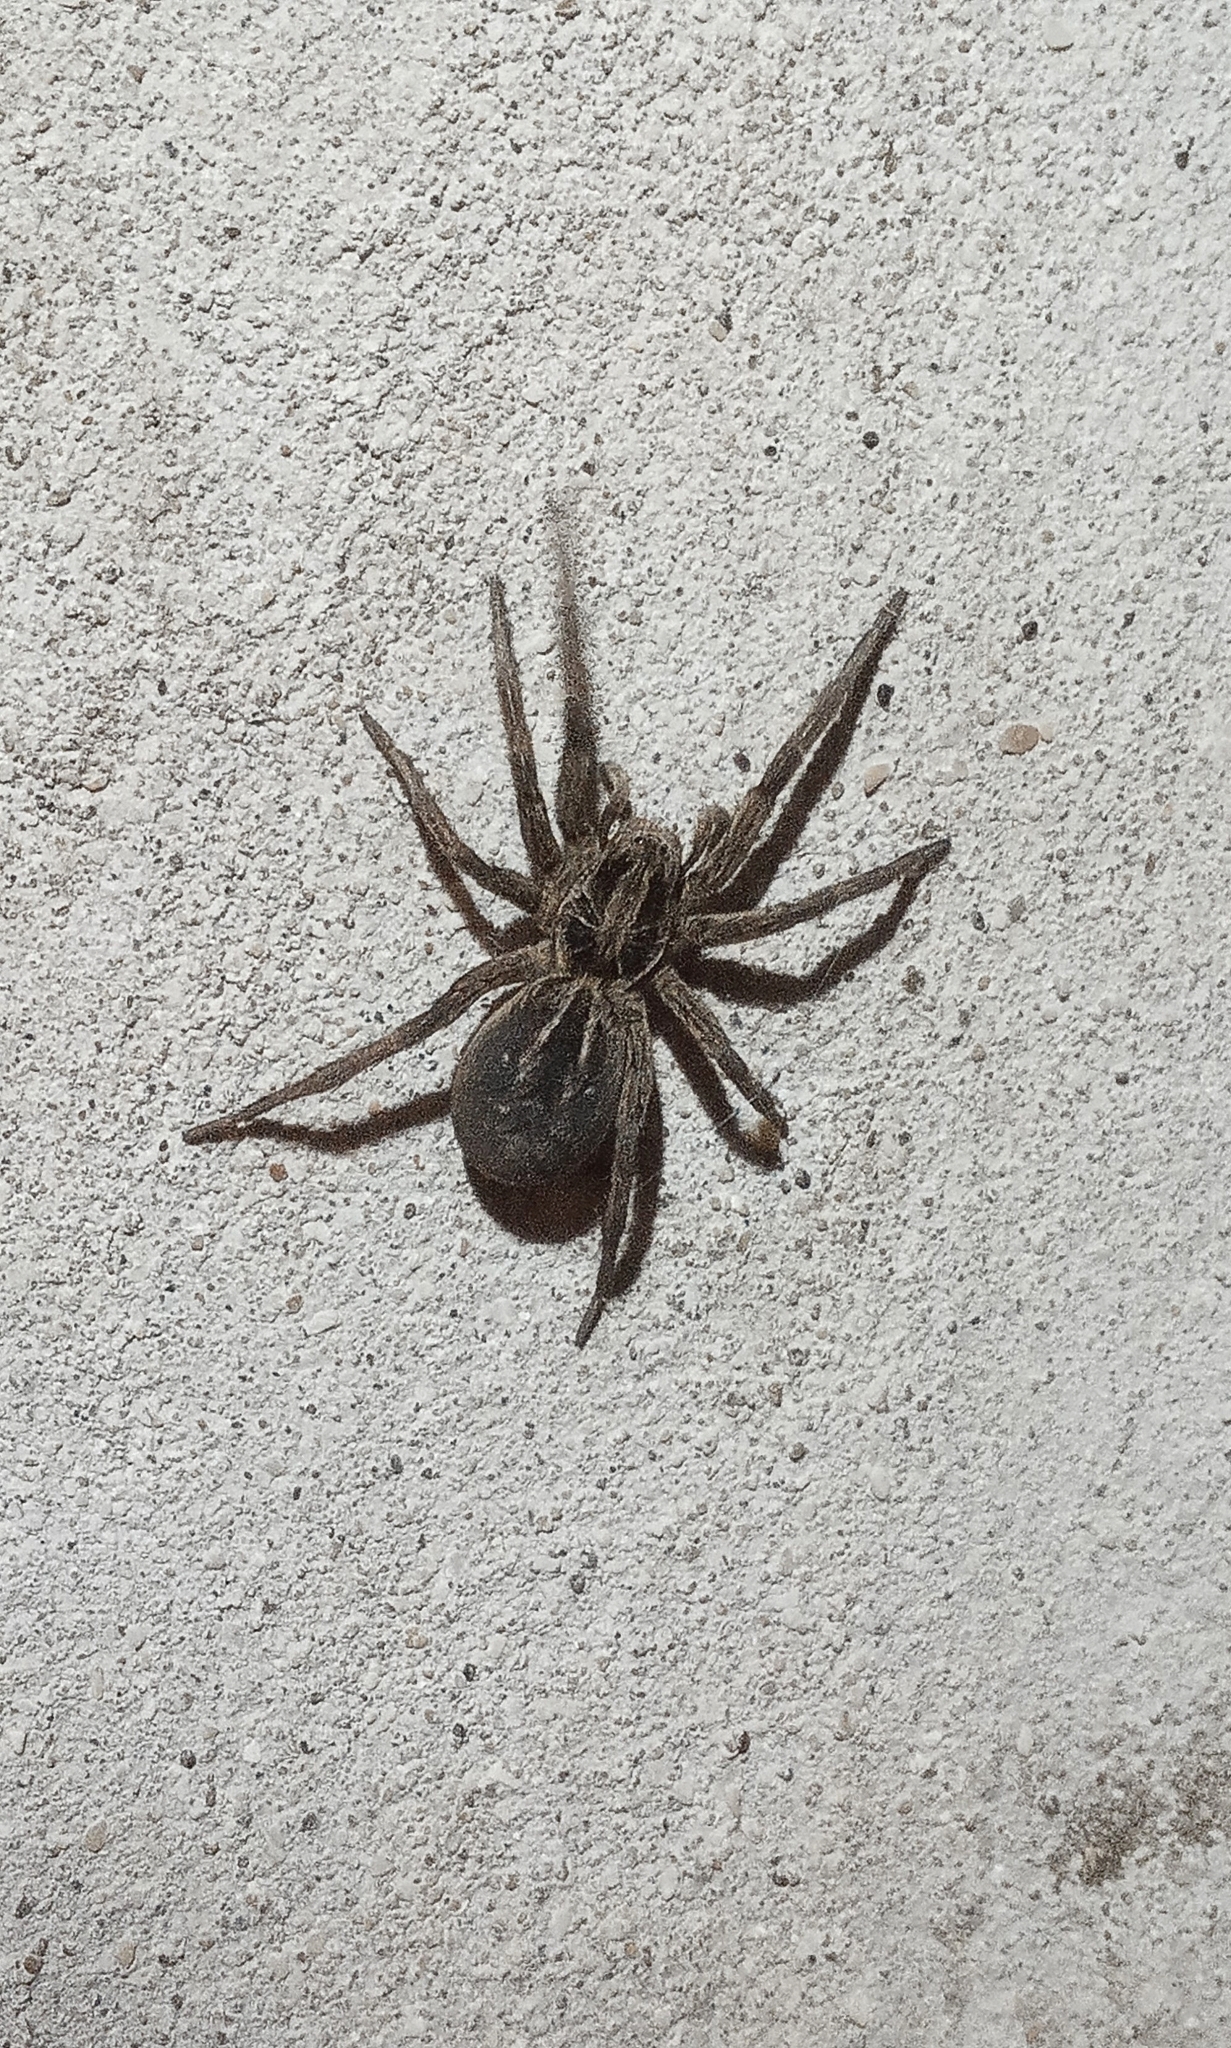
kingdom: Animalia
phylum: Arthropoda
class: Arachnida
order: Araneae
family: Lycosidae
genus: Lycosa
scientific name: Lycosa pampeana
